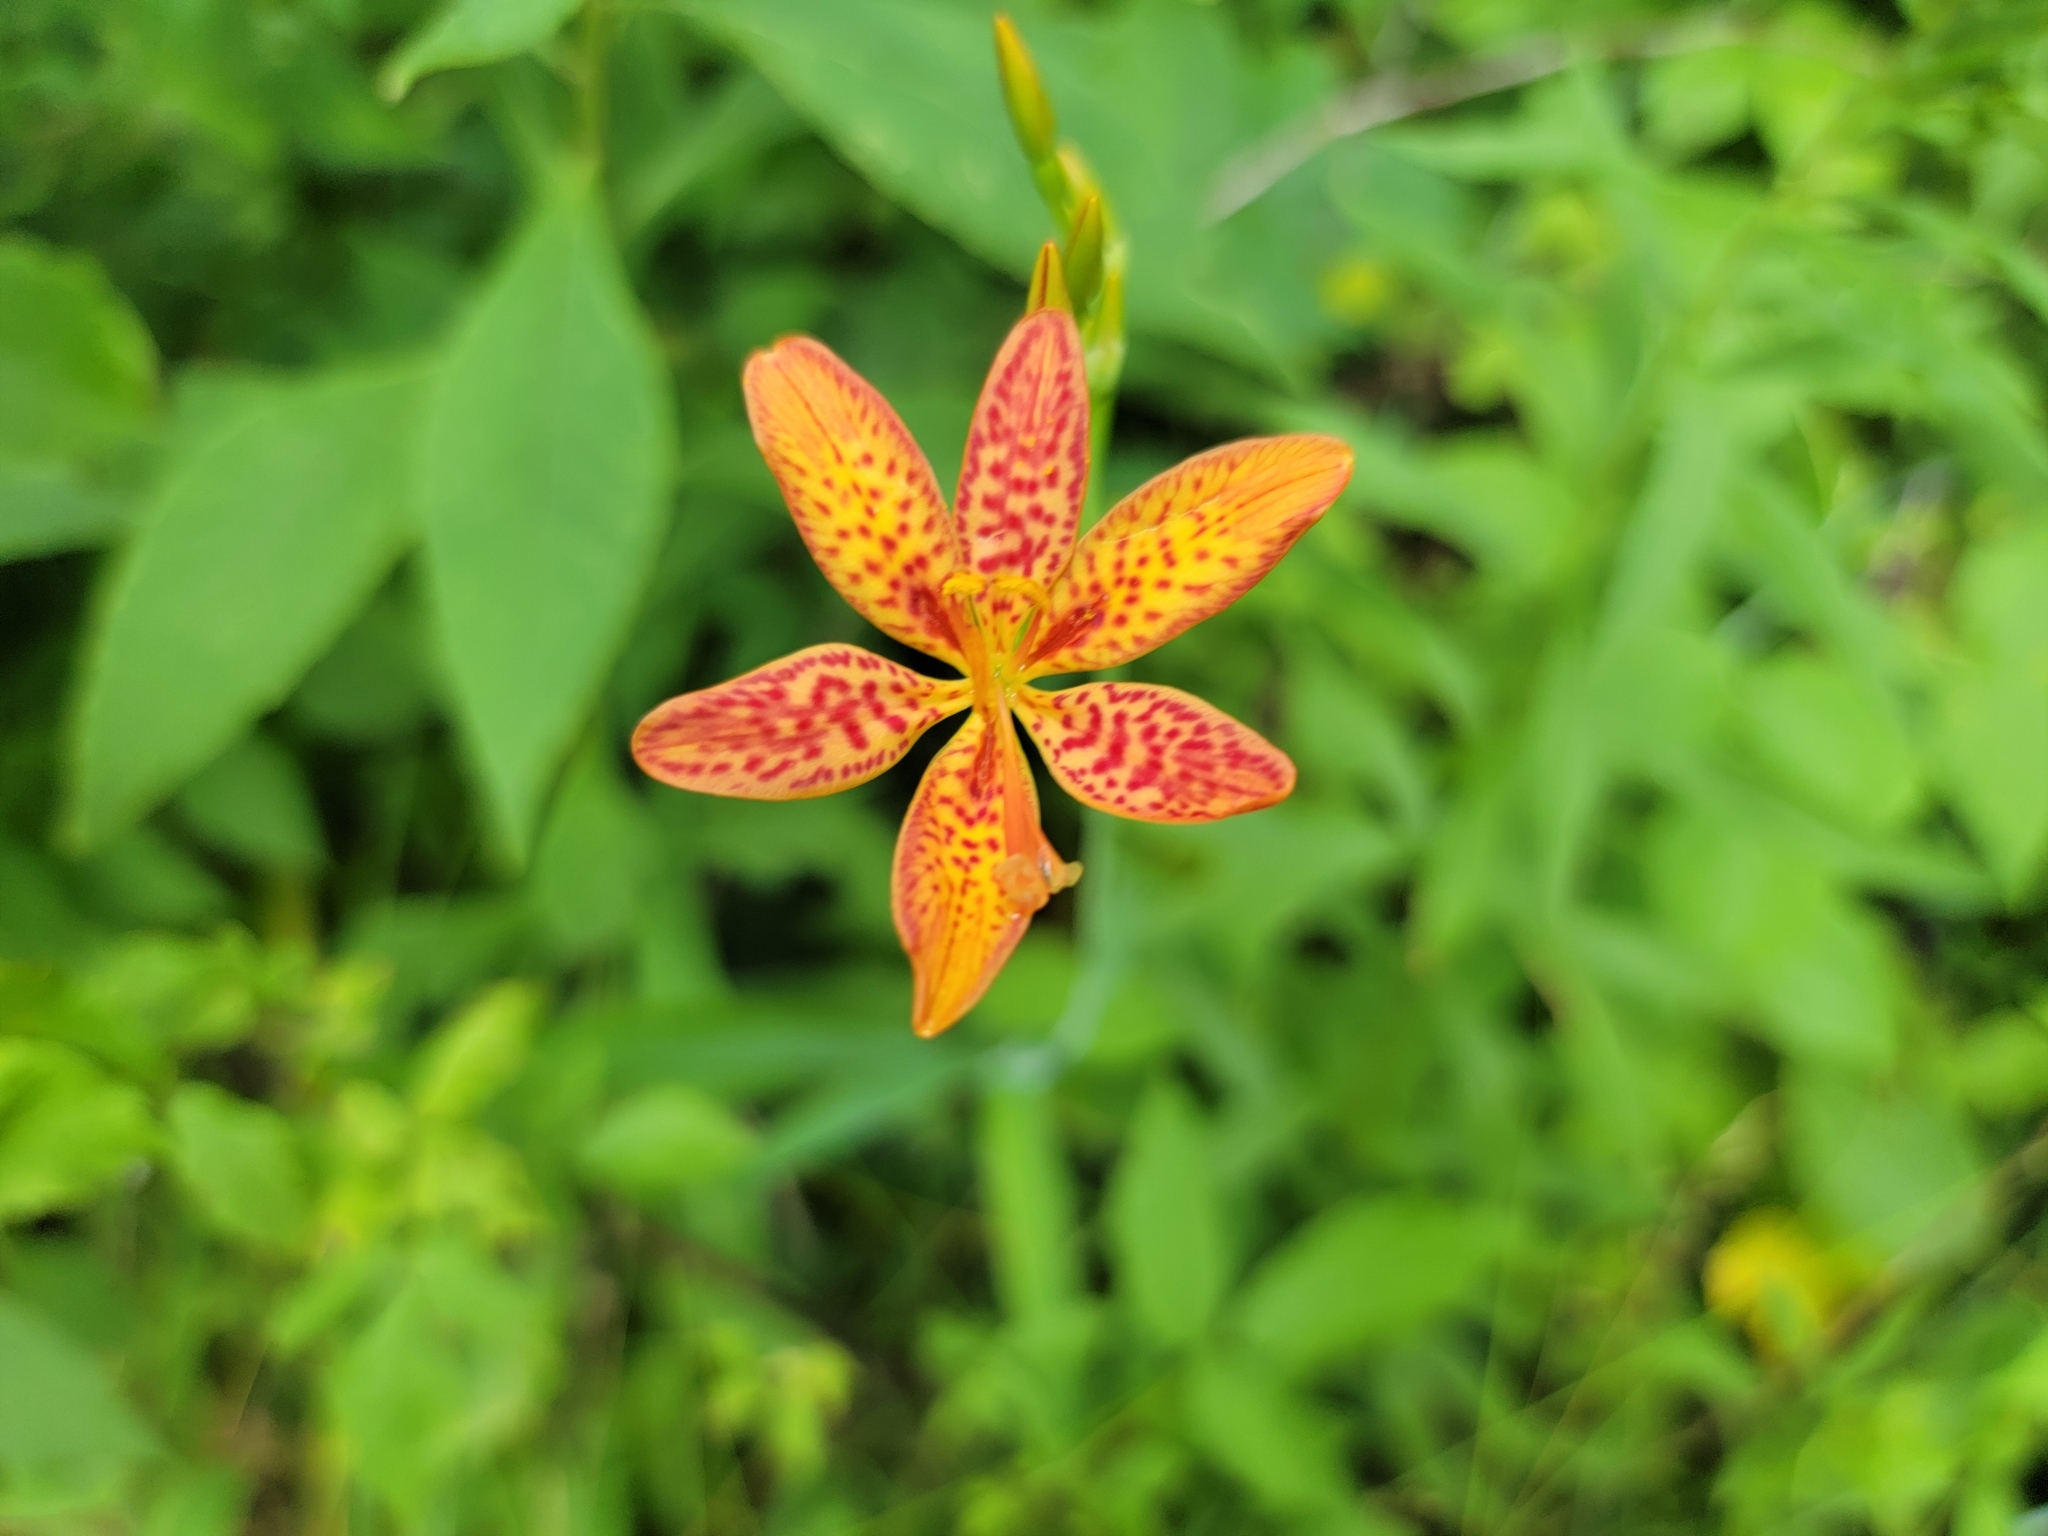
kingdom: Plantae
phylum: Tracheophyta
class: Liliopsida
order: Asparagales
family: Iridaceae
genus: Iris
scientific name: Iris domestica
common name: Belamcanda
